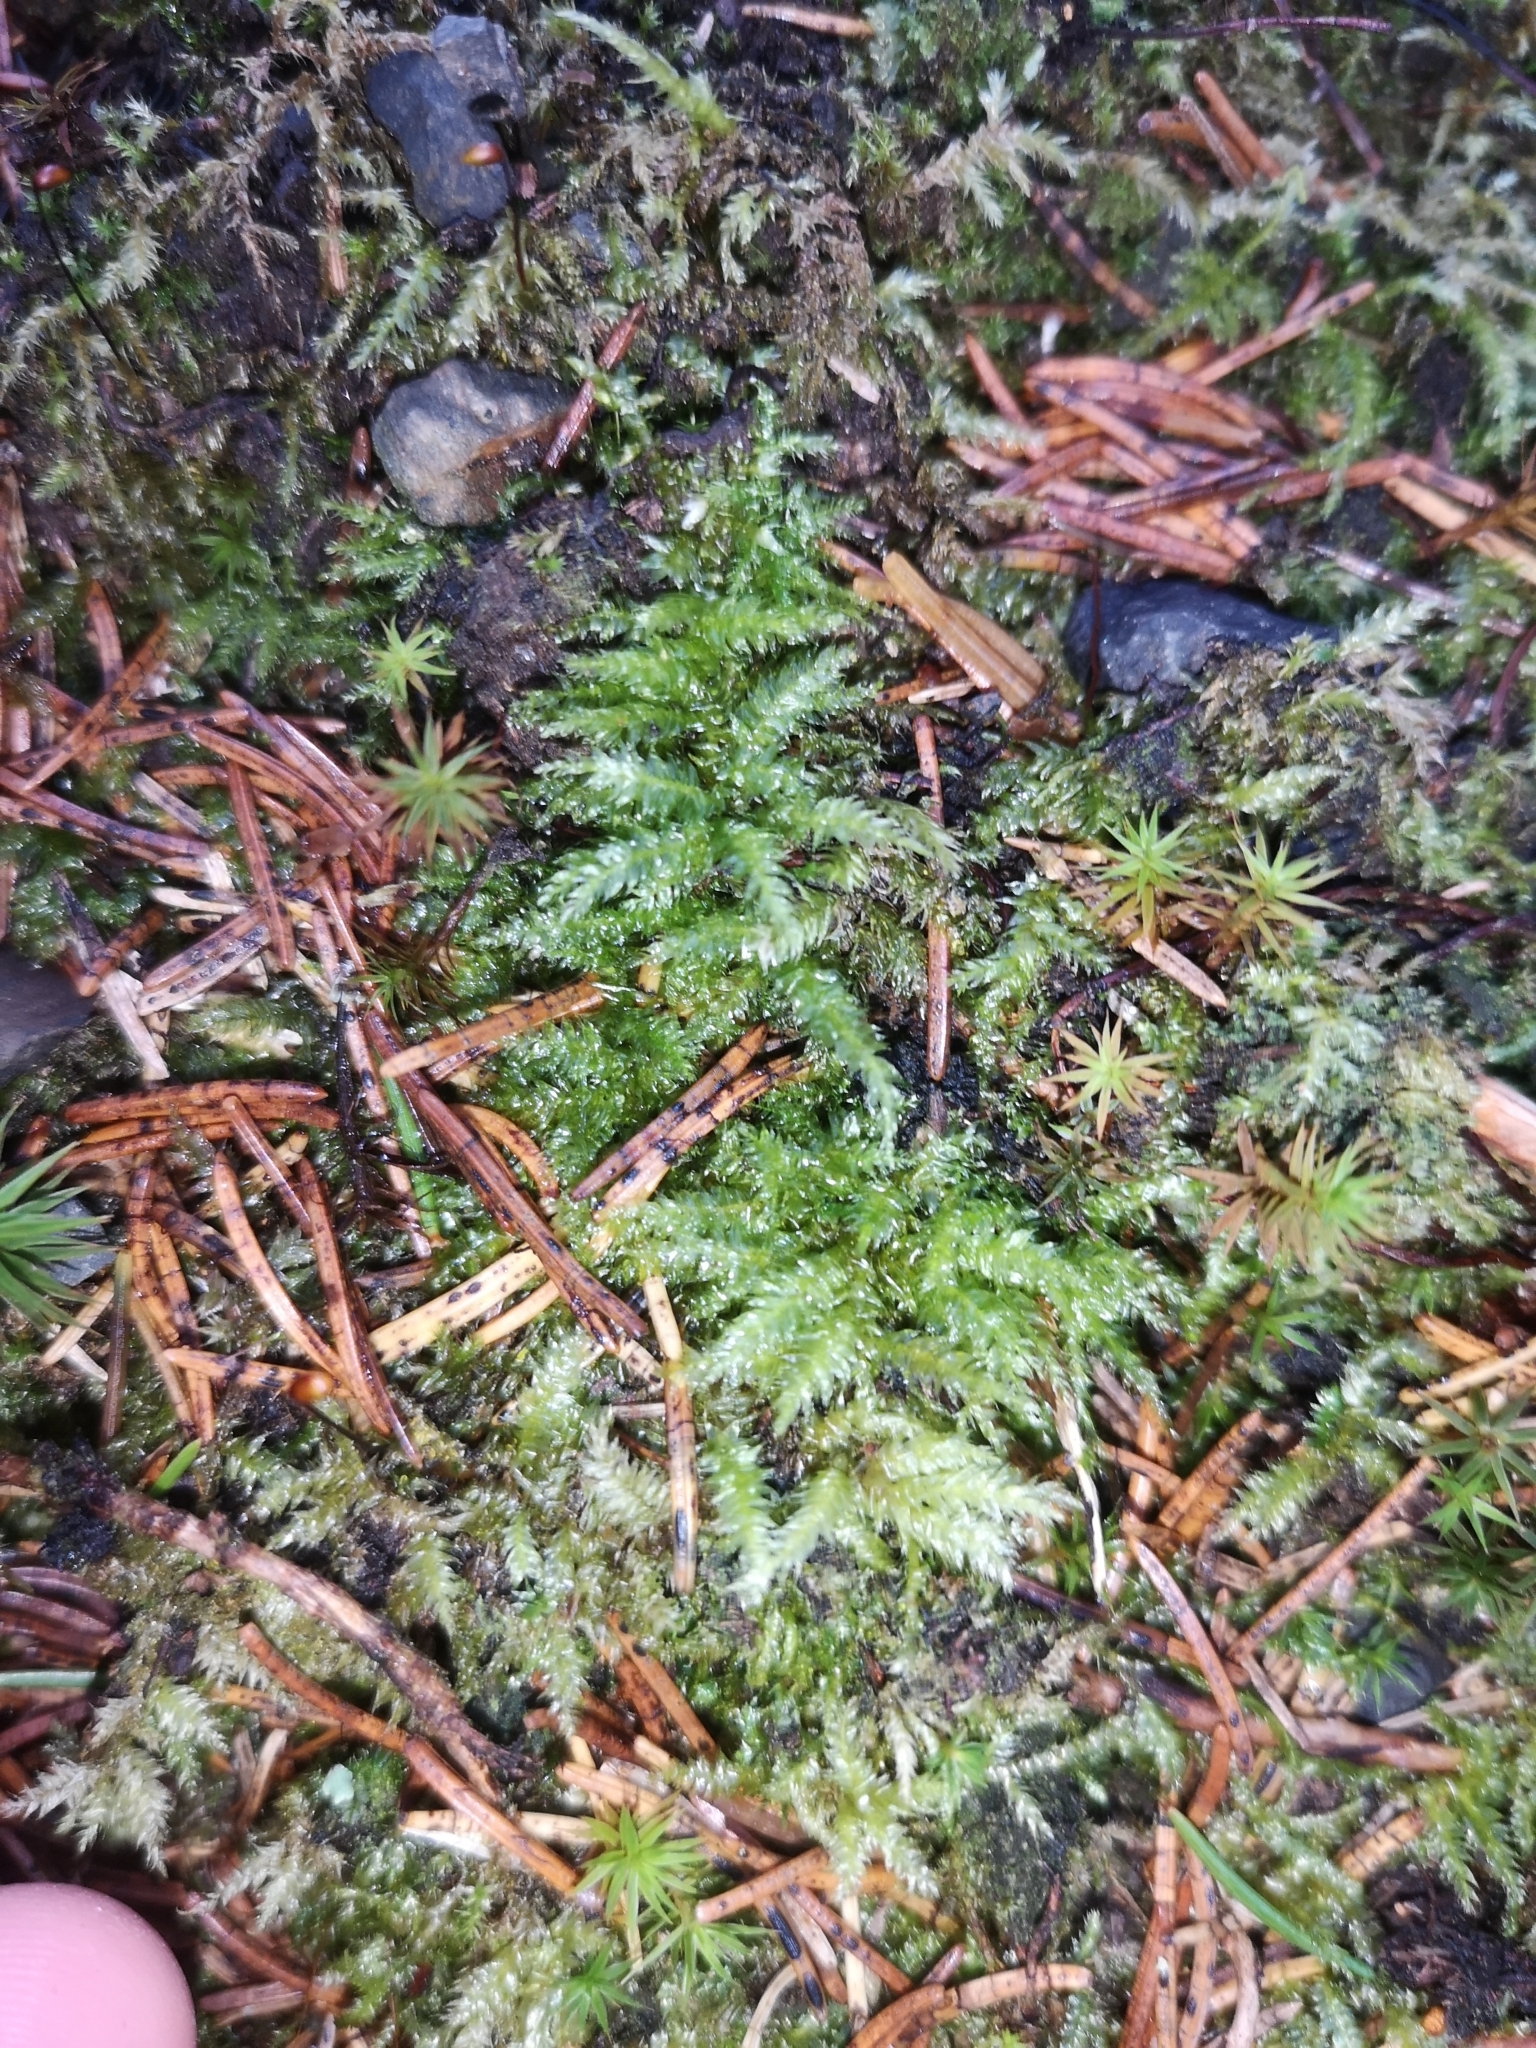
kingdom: Plantae
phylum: Bryophyta
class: Bryopsida
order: Hypnales
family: Plagiotheciaceae
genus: Plagiothecium
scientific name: Plagiothecium undulatum
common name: Waved silk-moss
